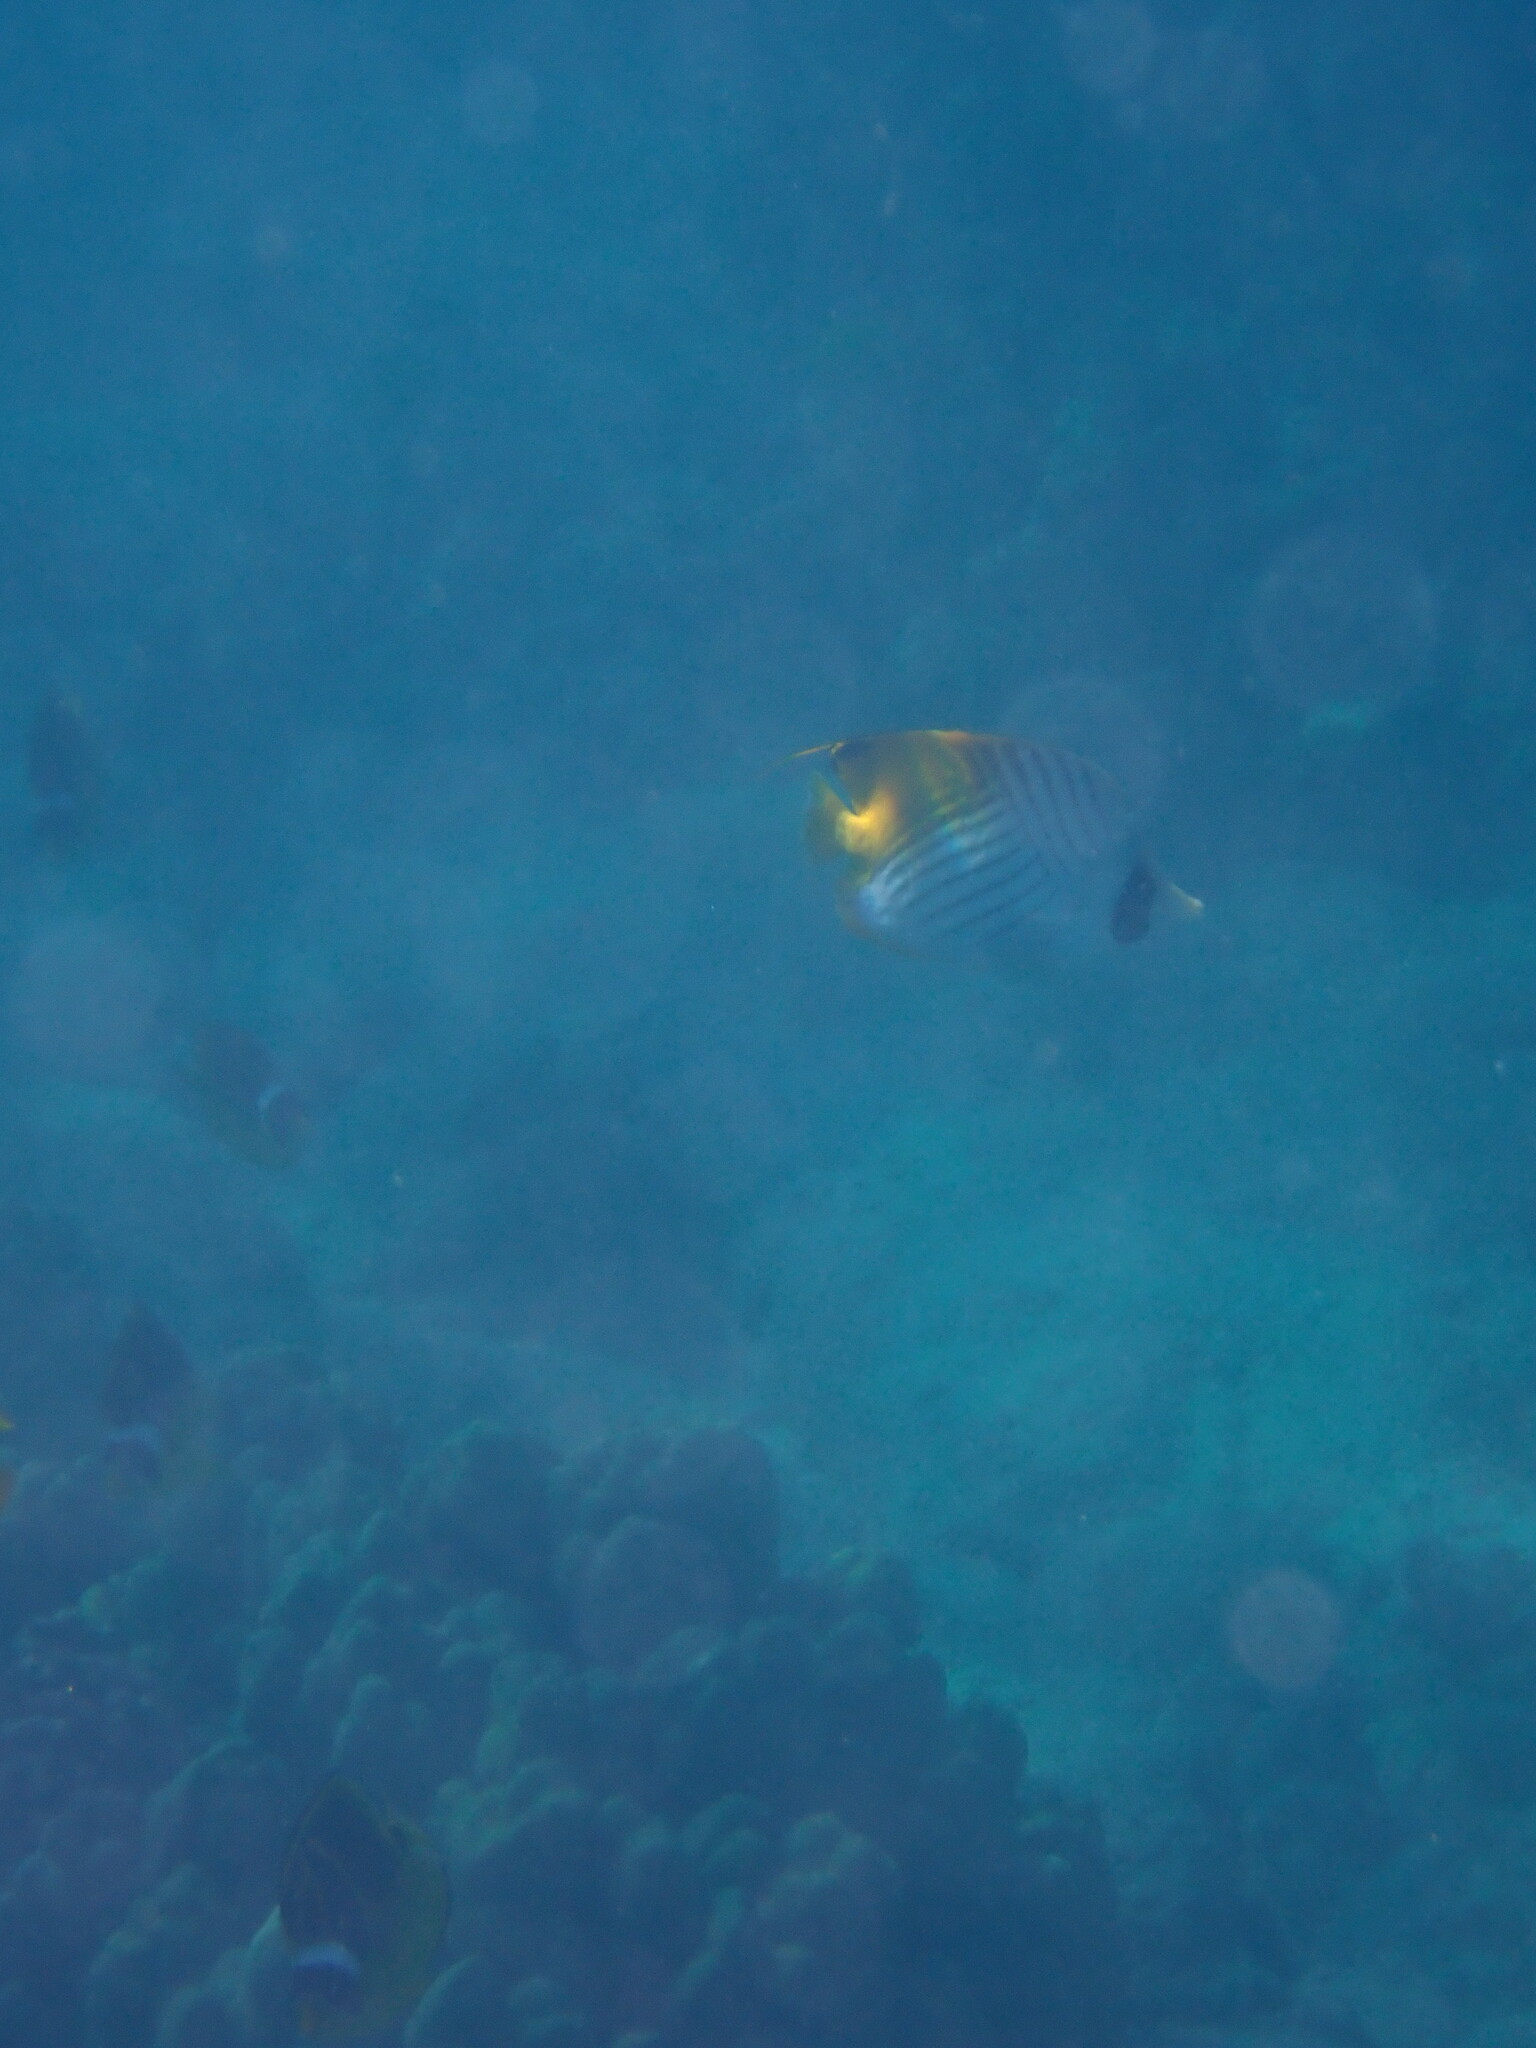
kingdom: Animalia
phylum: Chordata
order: Perciformes
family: Chaetodontidae
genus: Chaetodon
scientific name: Chaetodon auriga
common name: Threadfin butterflyfish
